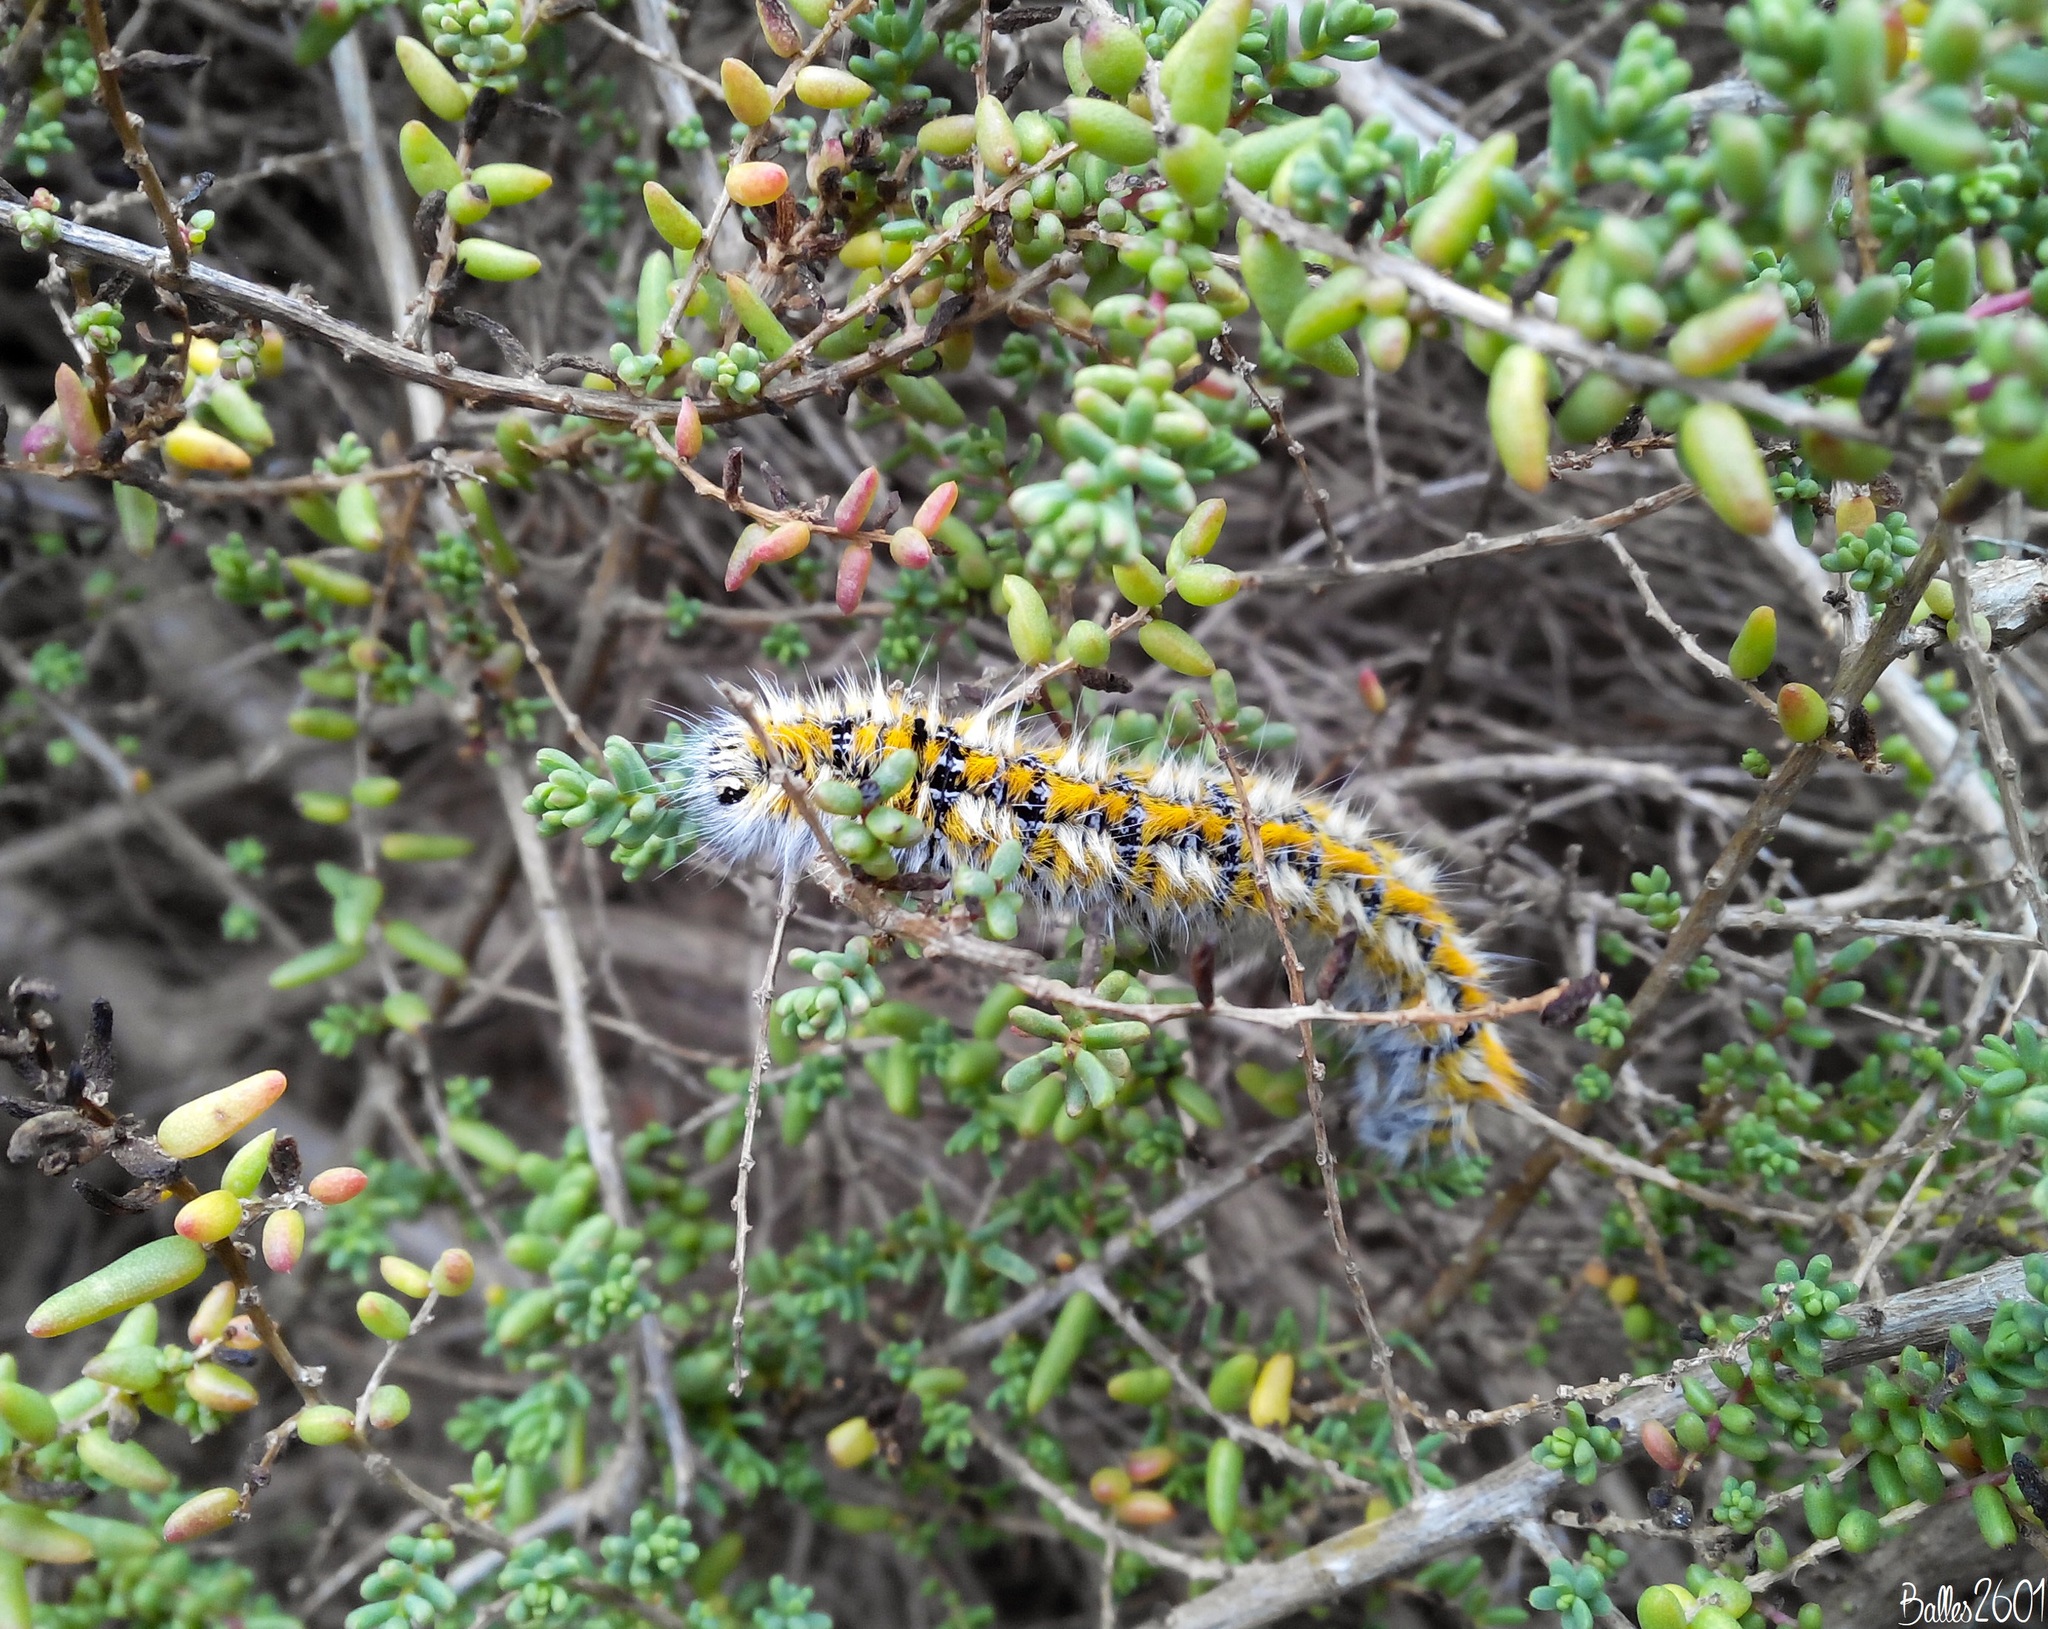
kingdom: Animalia
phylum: Arthropoda
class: Insecta
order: Lepidoptera
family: Lasiocampidae
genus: Lasiocampa
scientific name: Lasiocampa serrula
